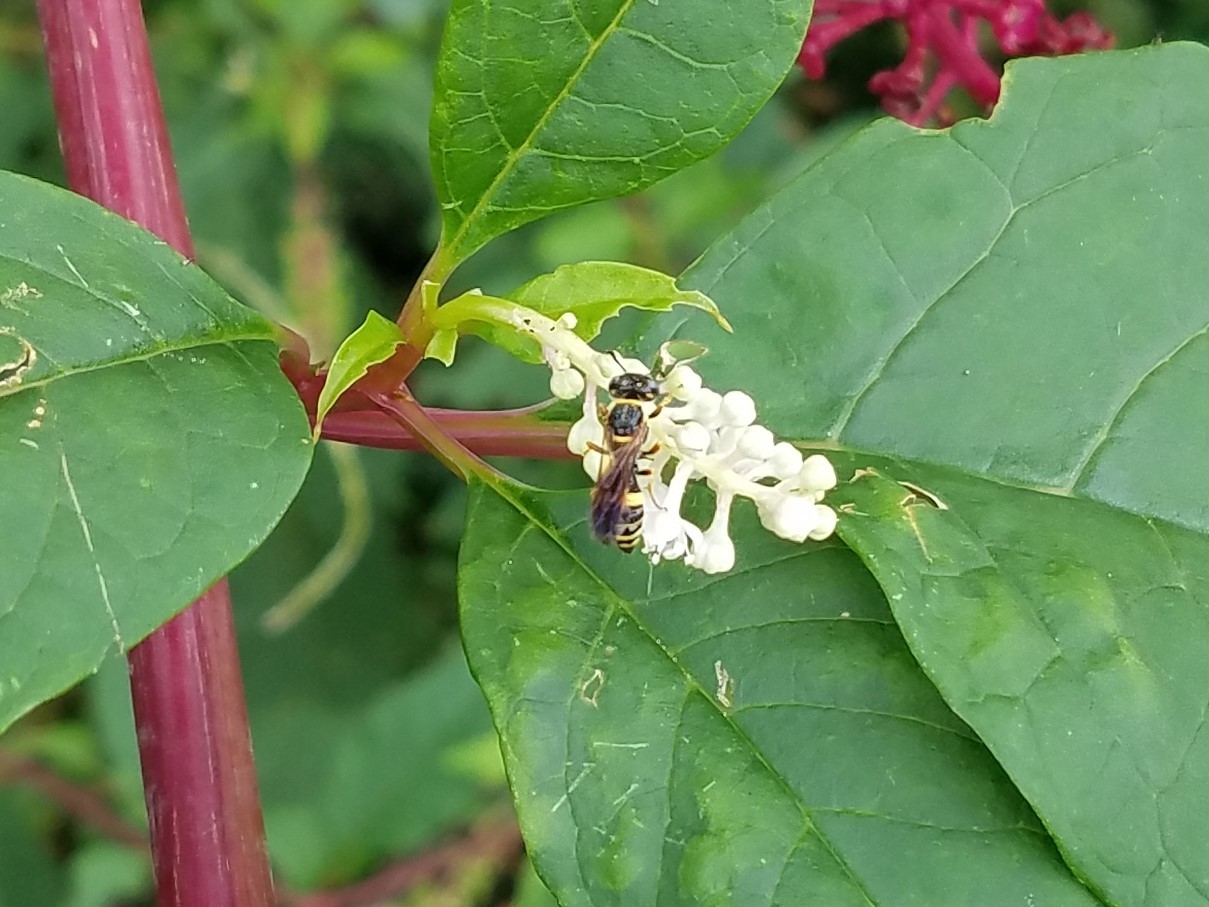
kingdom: Animalia
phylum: Arthropoda
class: Insecta
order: Hymenoptera
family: Crabronidae
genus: Philanthus
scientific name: Philanthus gibbosus
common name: Humped beewolf
